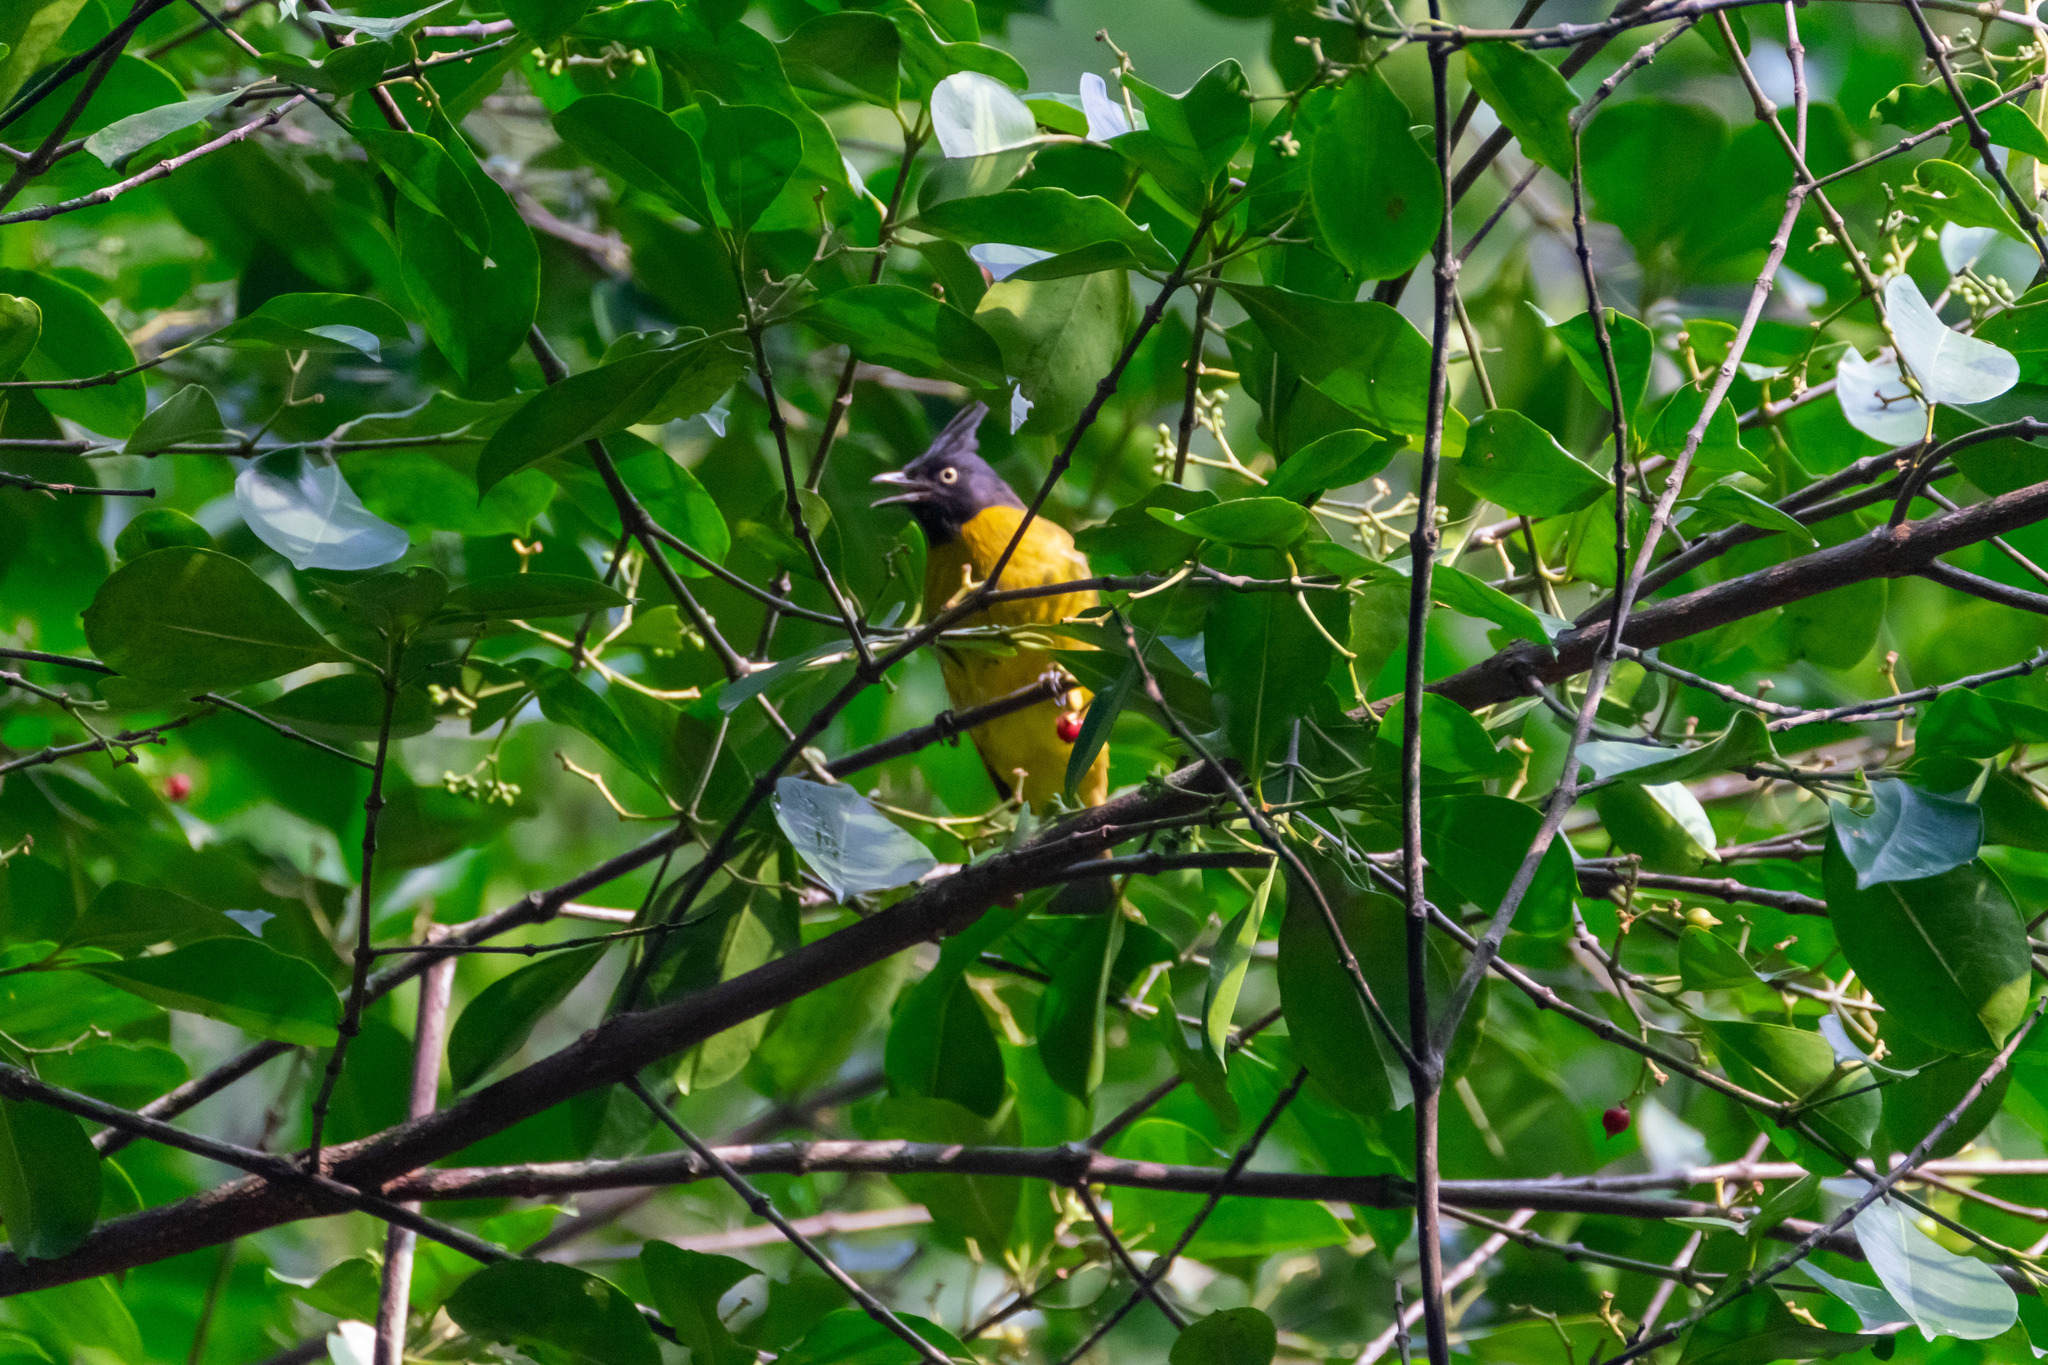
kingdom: Animalia
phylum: Chordata
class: Aves
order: Passeriformes
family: Pycnonotidae
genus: Pycnonotus
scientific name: Pycnonotus flaviventris
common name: Black-crested bulbul
